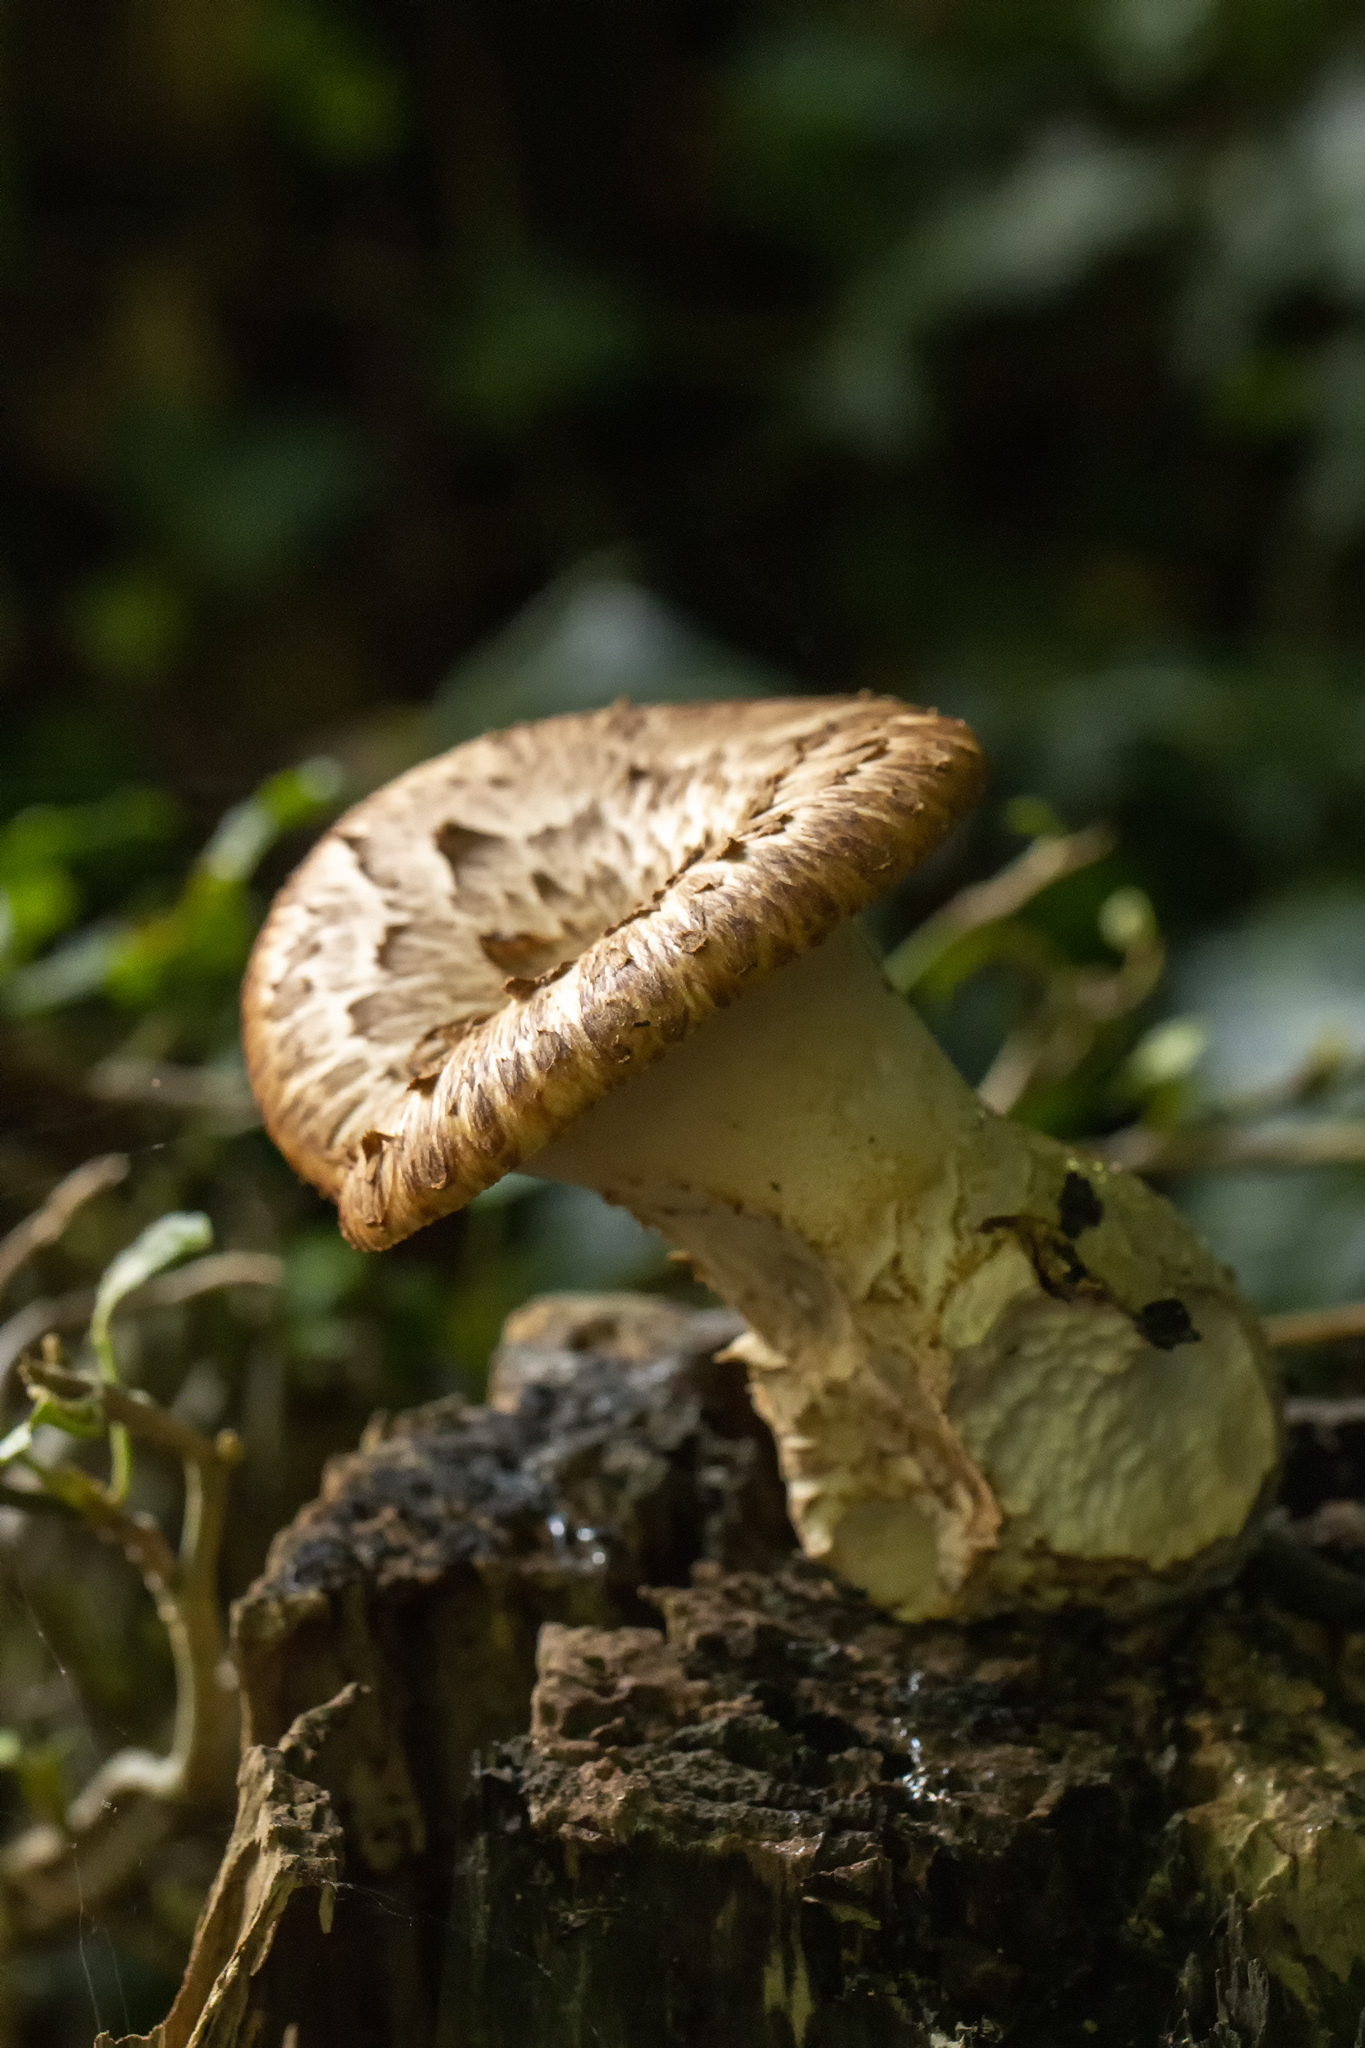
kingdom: Fungi
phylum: Basidiomycota
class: Agaricomycetes
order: Polyporales
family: Polyporaceae
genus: Cerioporus
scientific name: Cerioporus squamosus
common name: Dryad's saddle
